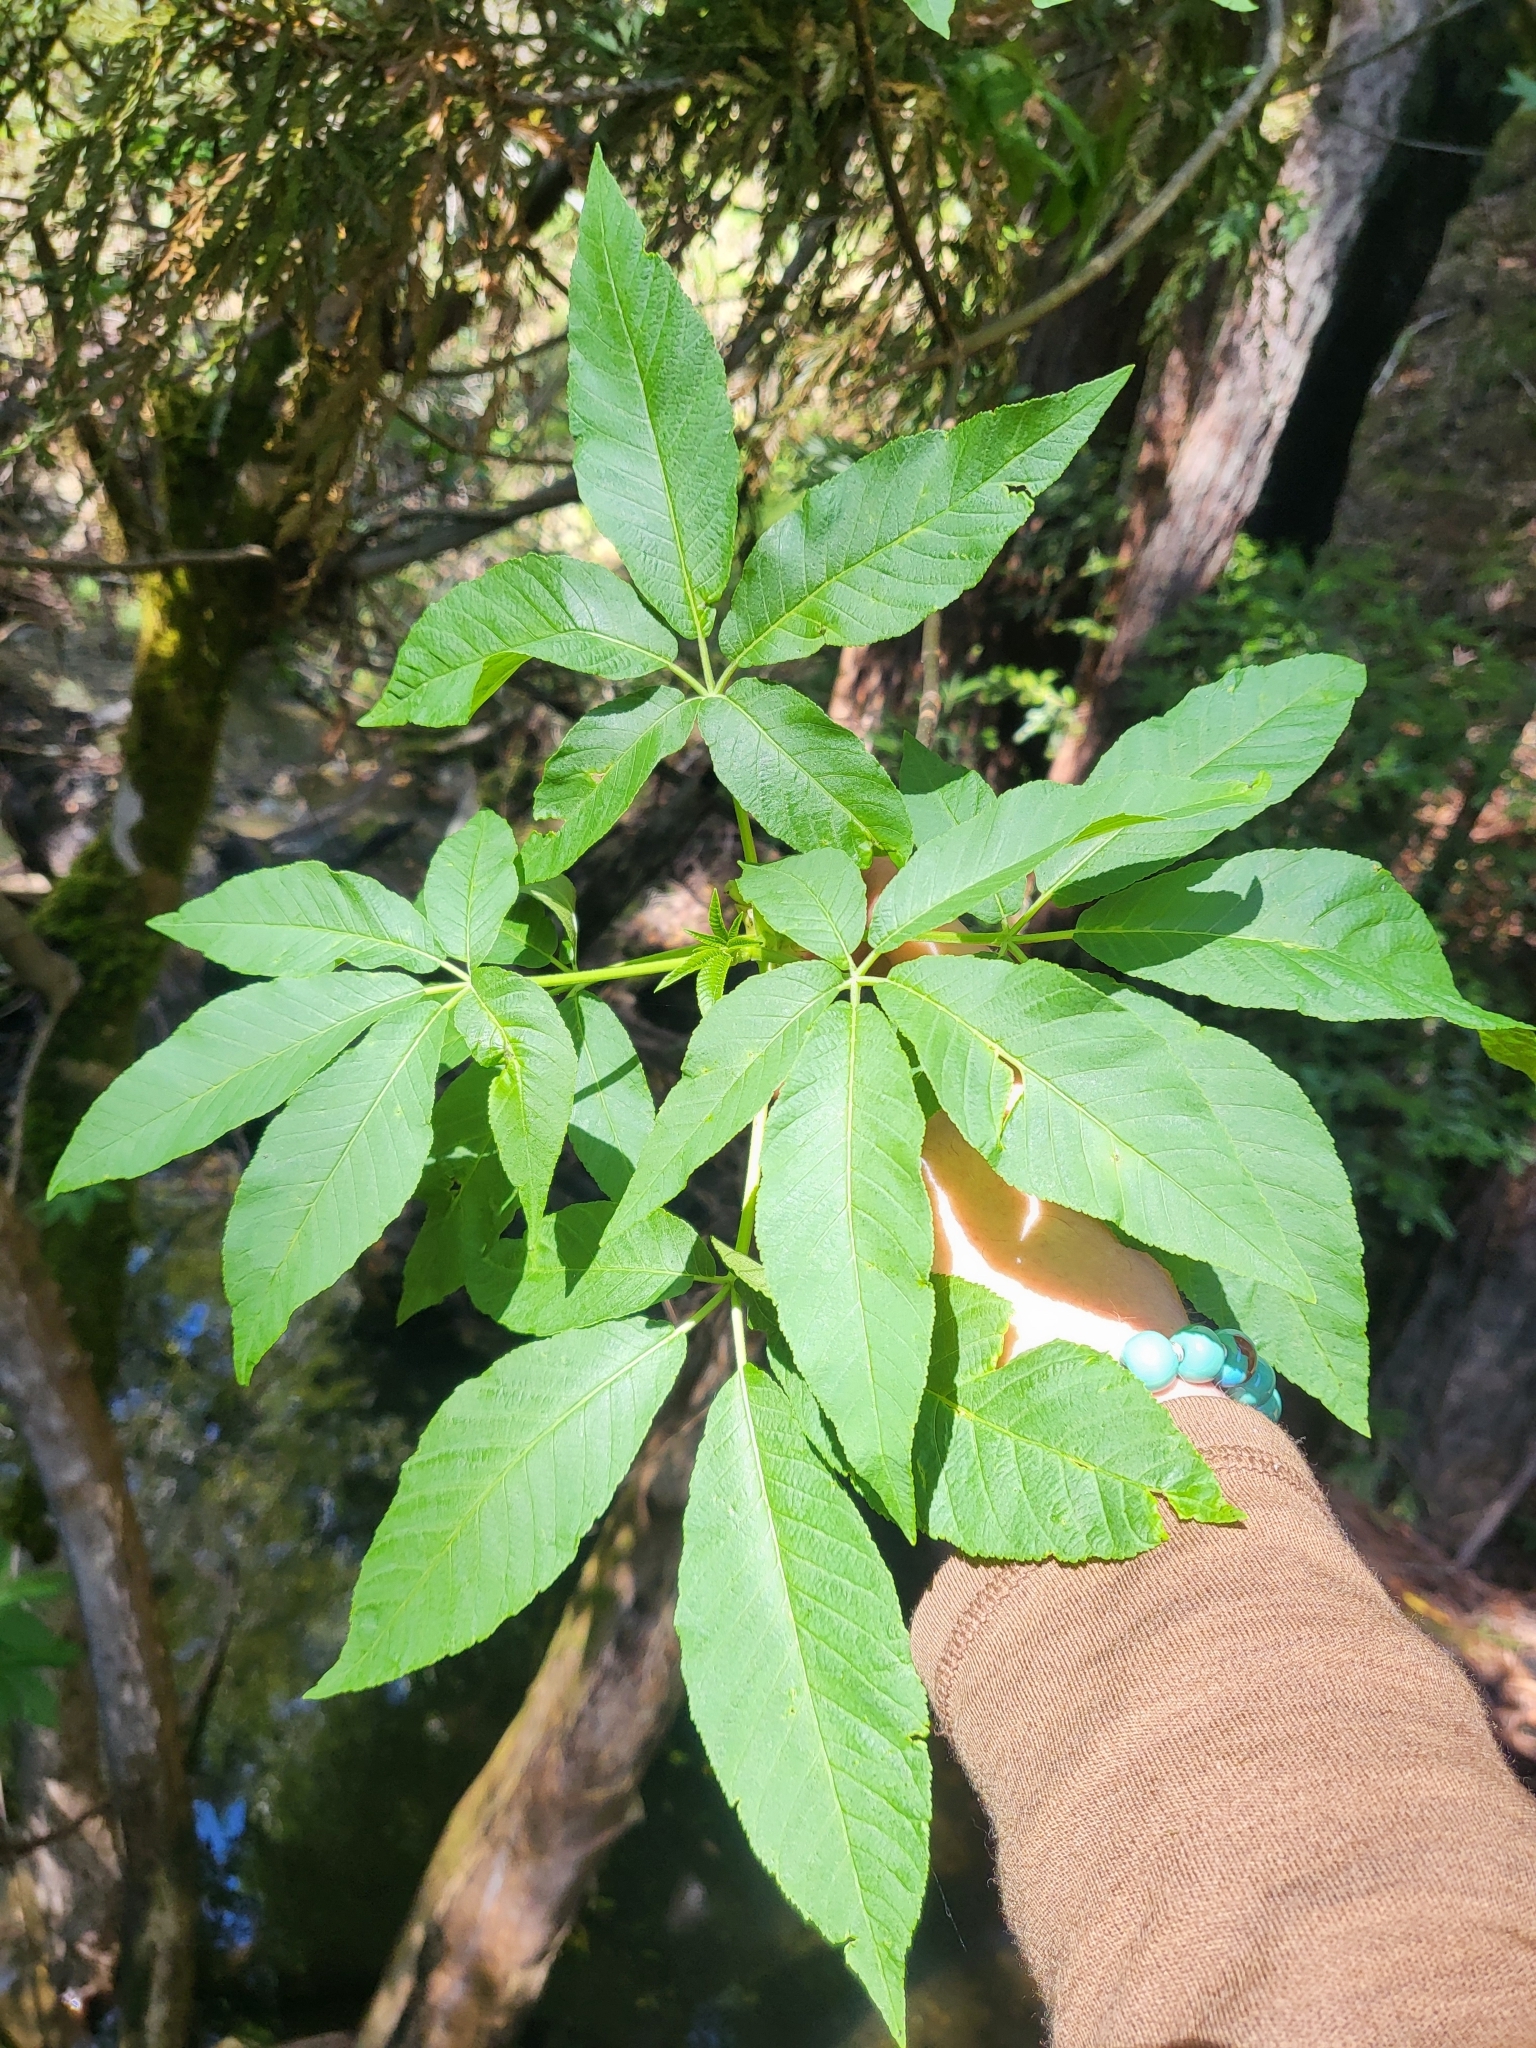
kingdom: Plantae
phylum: Tracheophyta
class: Magnoliopsida
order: Sapindales
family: Sapindaceae
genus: Aesculus
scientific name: Aesculus californica
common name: California buckeye
